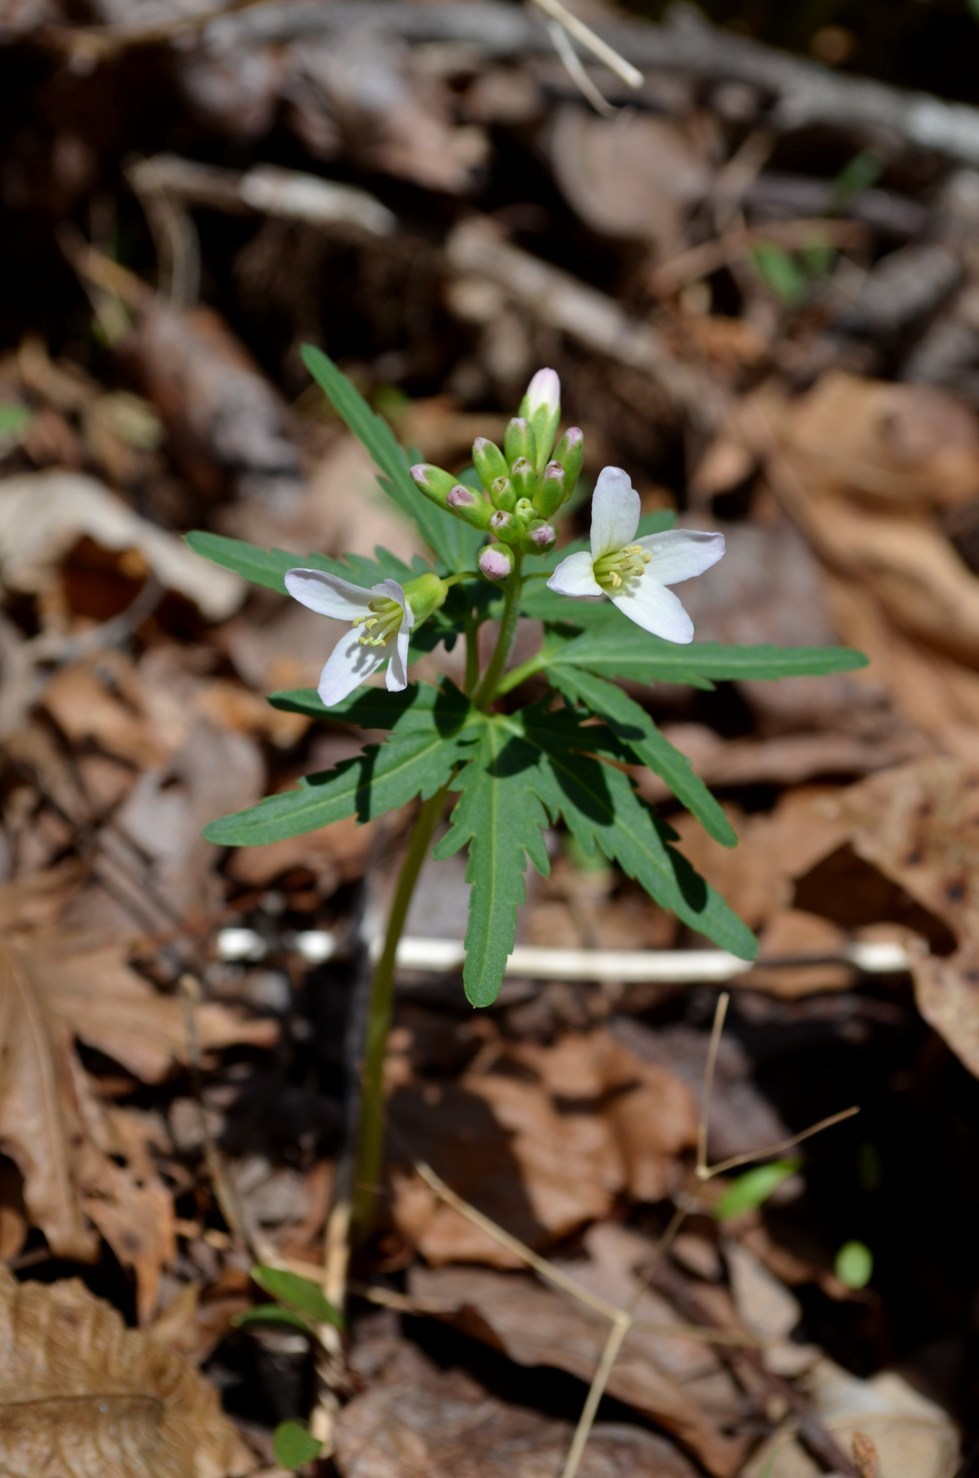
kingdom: Plantae
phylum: Tracheophyta
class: Magnoliopsida
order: Brassicales
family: Brassicaceae
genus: Cardamine
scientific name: Cardamine concatenata
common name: Cut-leaf toothcup
